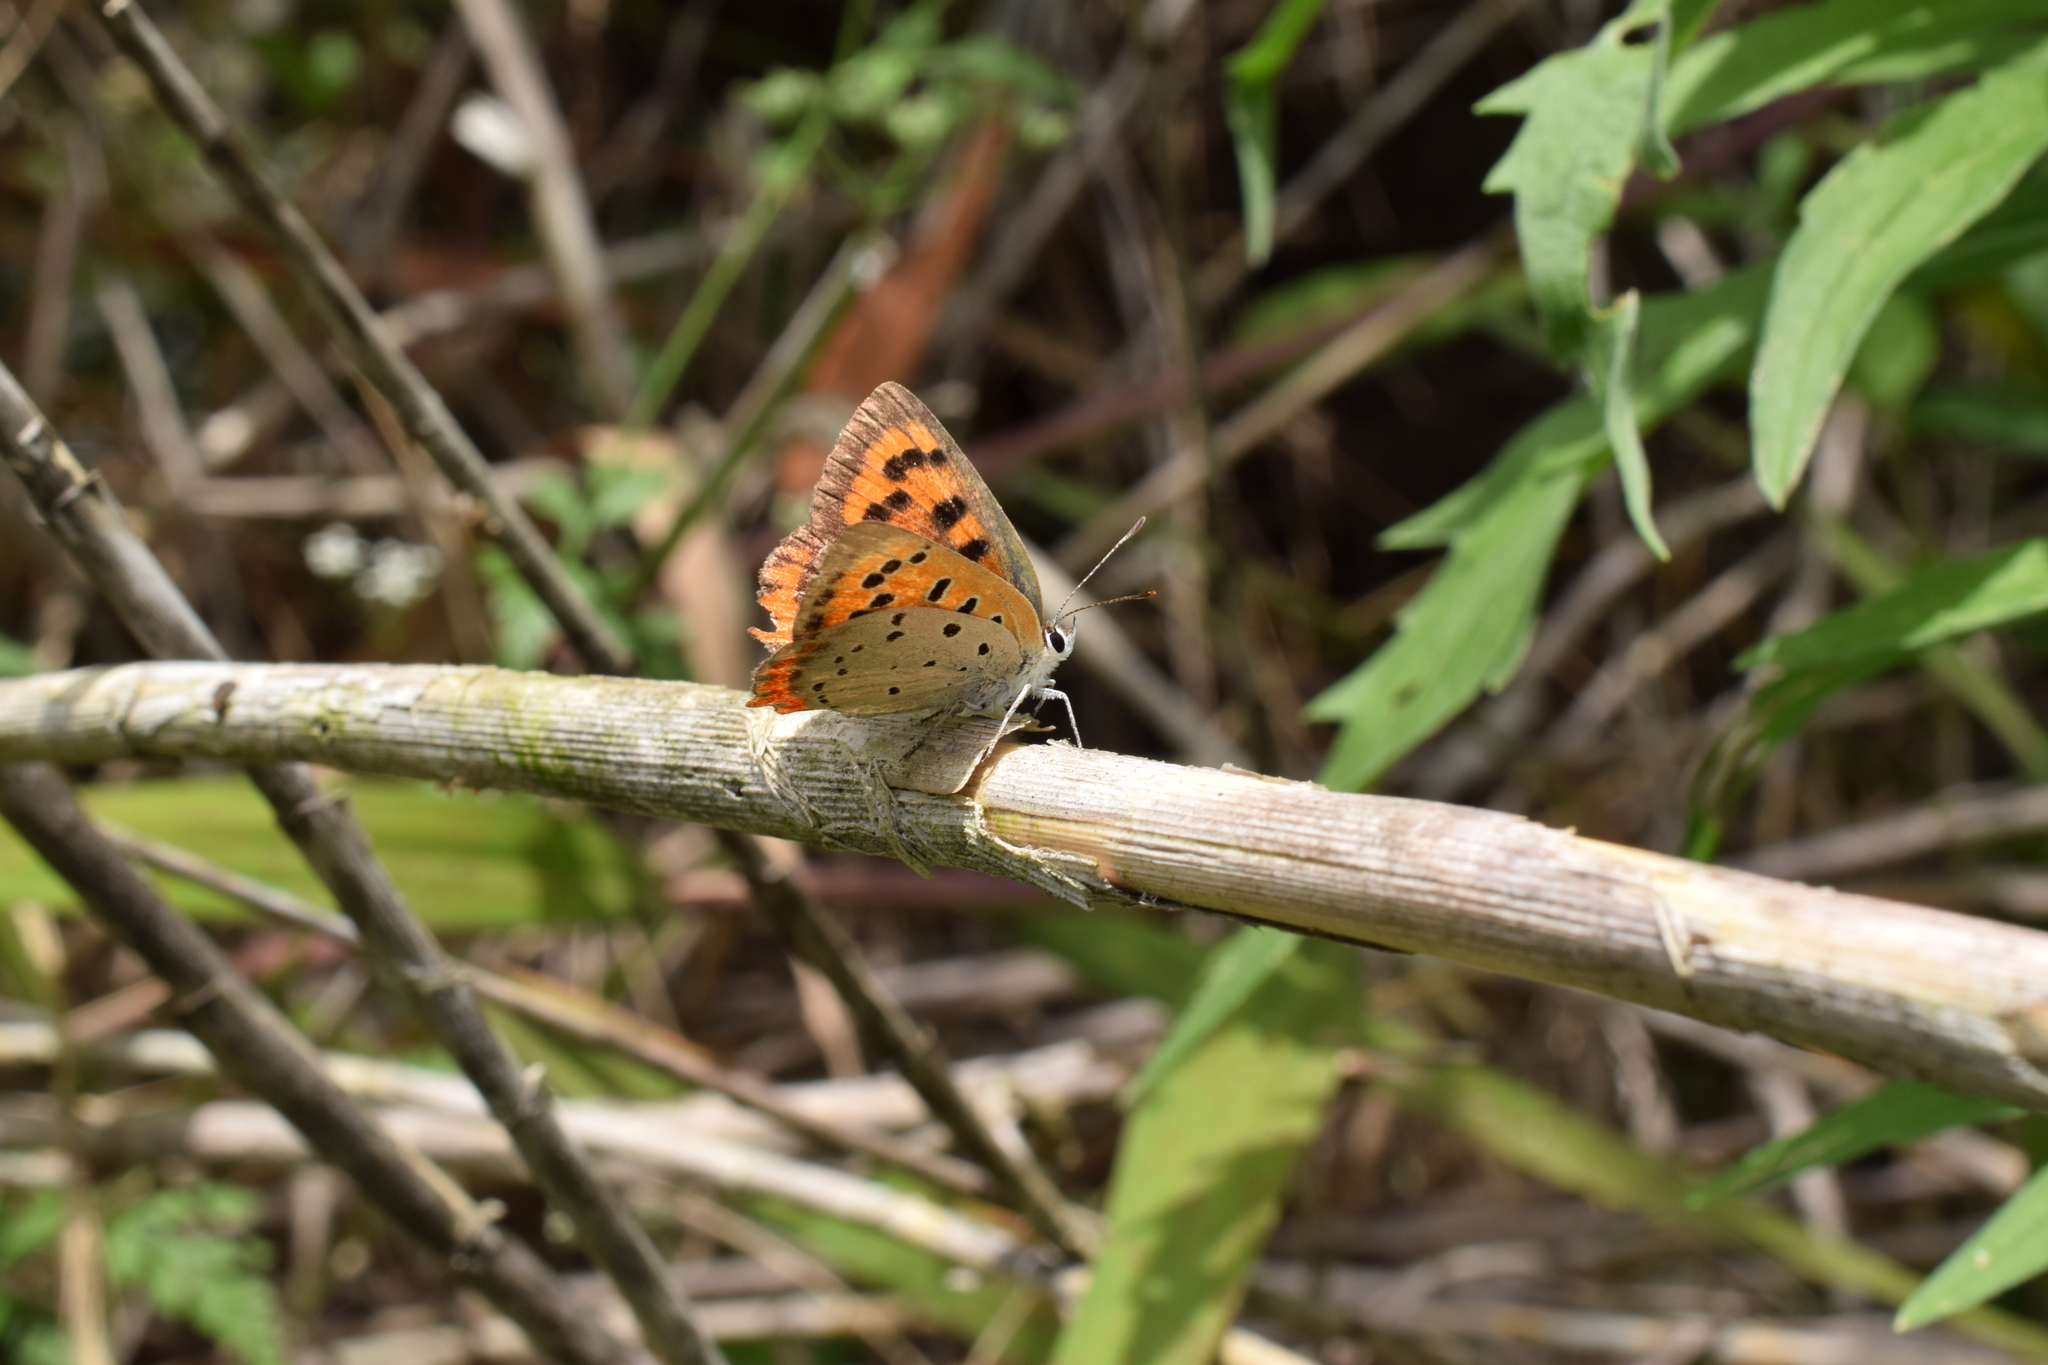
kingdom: Animalia
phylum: Arthropoda
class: Insecta
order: Lepidoptera
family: Lycaenidae
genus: Lycaena
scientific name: Lycaena phlaeas
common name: Small copper
